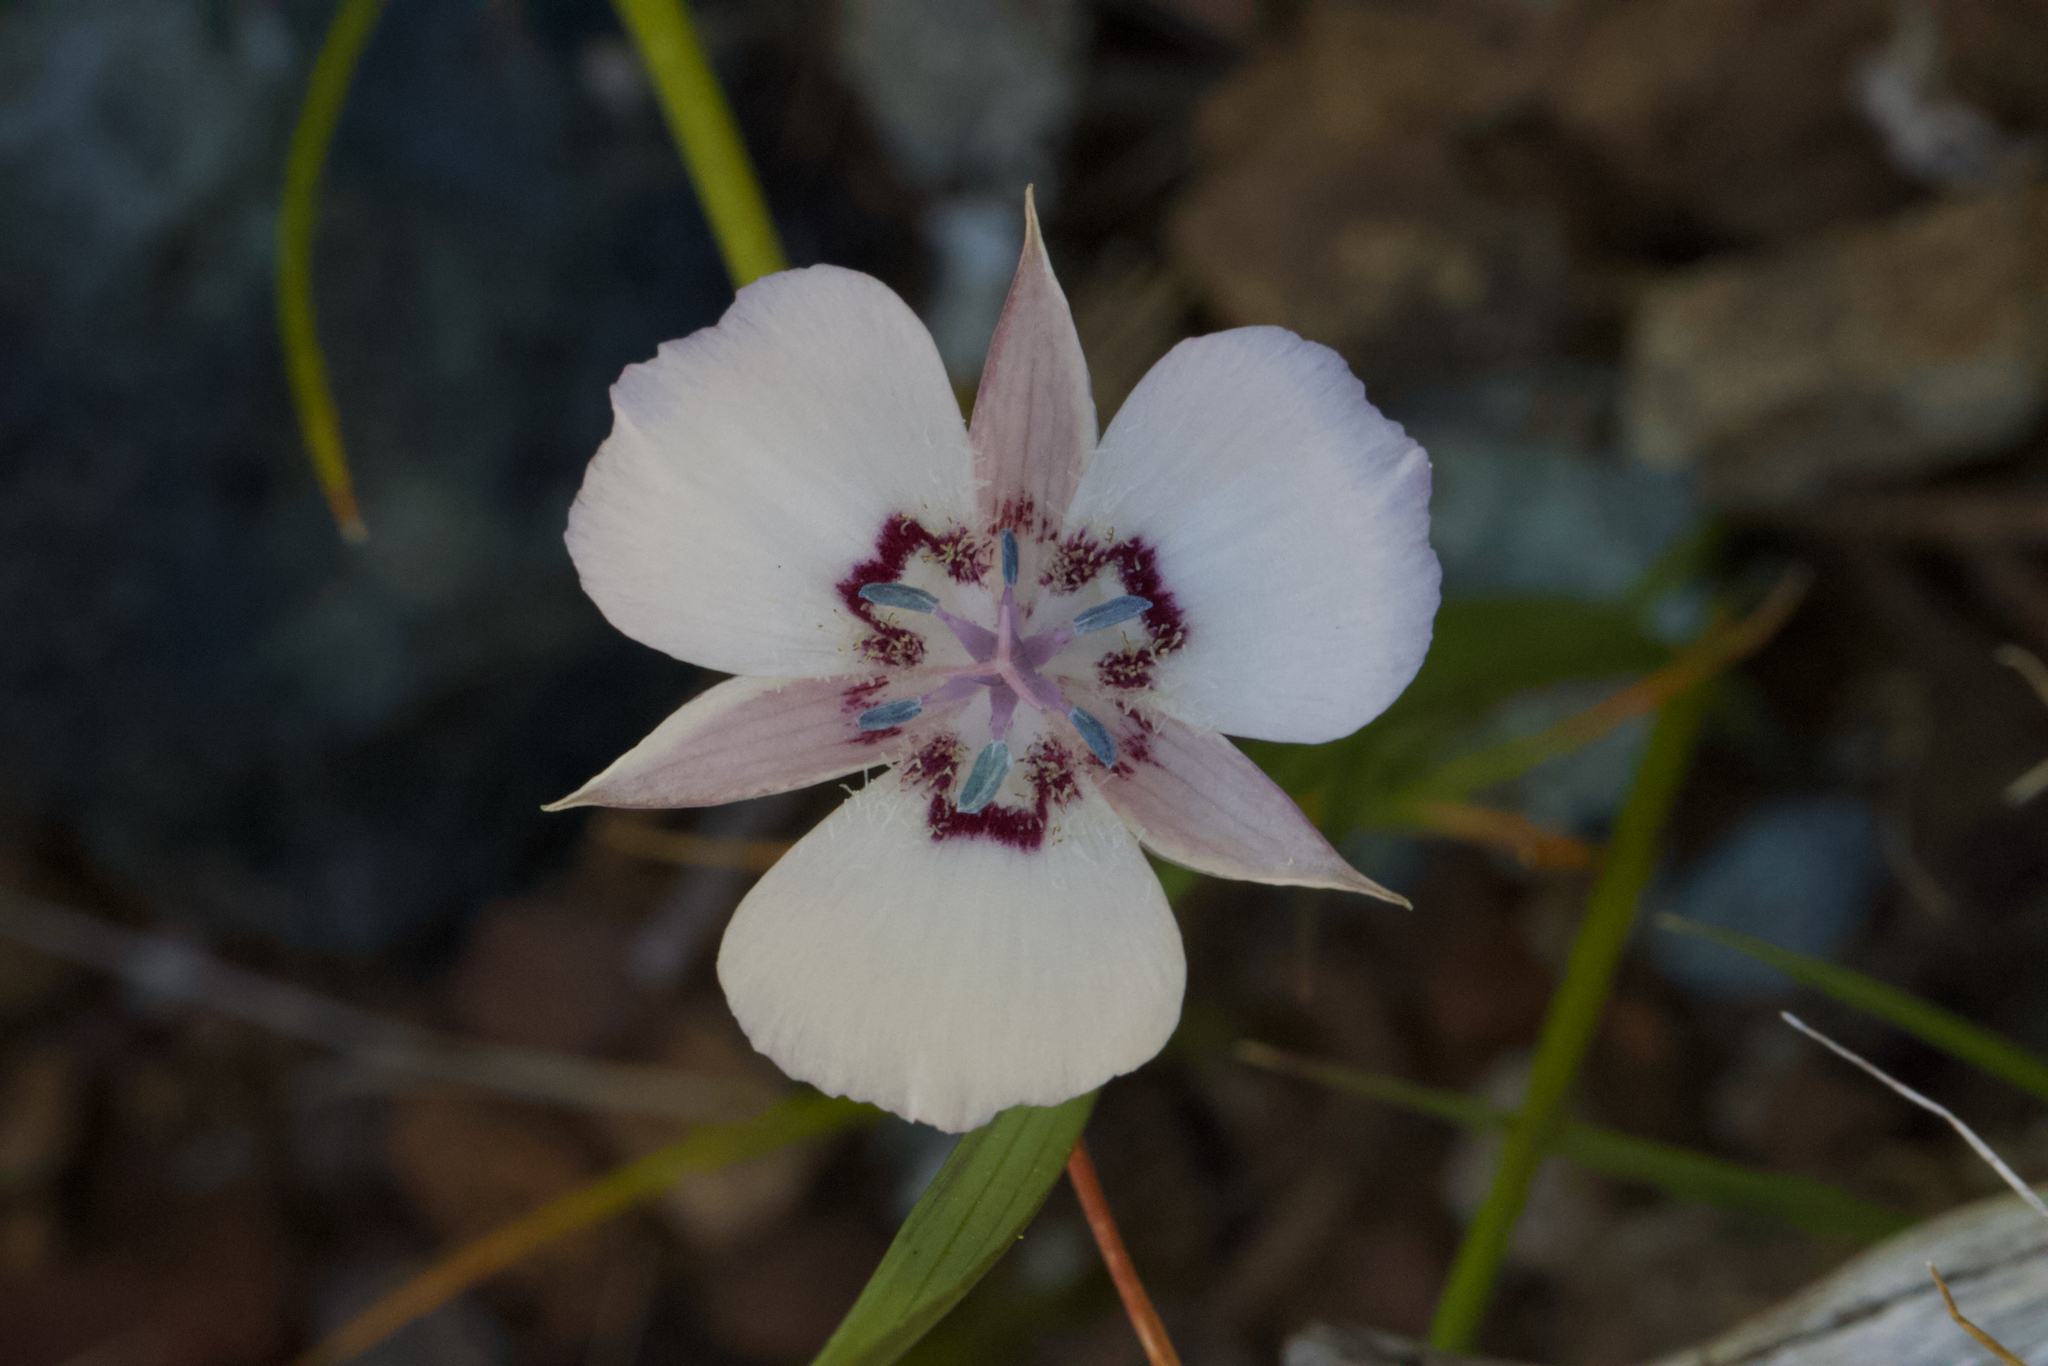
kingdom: Plantae
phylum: Tracheophyta
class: Liliopsida
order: Liliales
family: Liliaceae
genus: Calochortus
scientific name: Calochortus umbellatus
